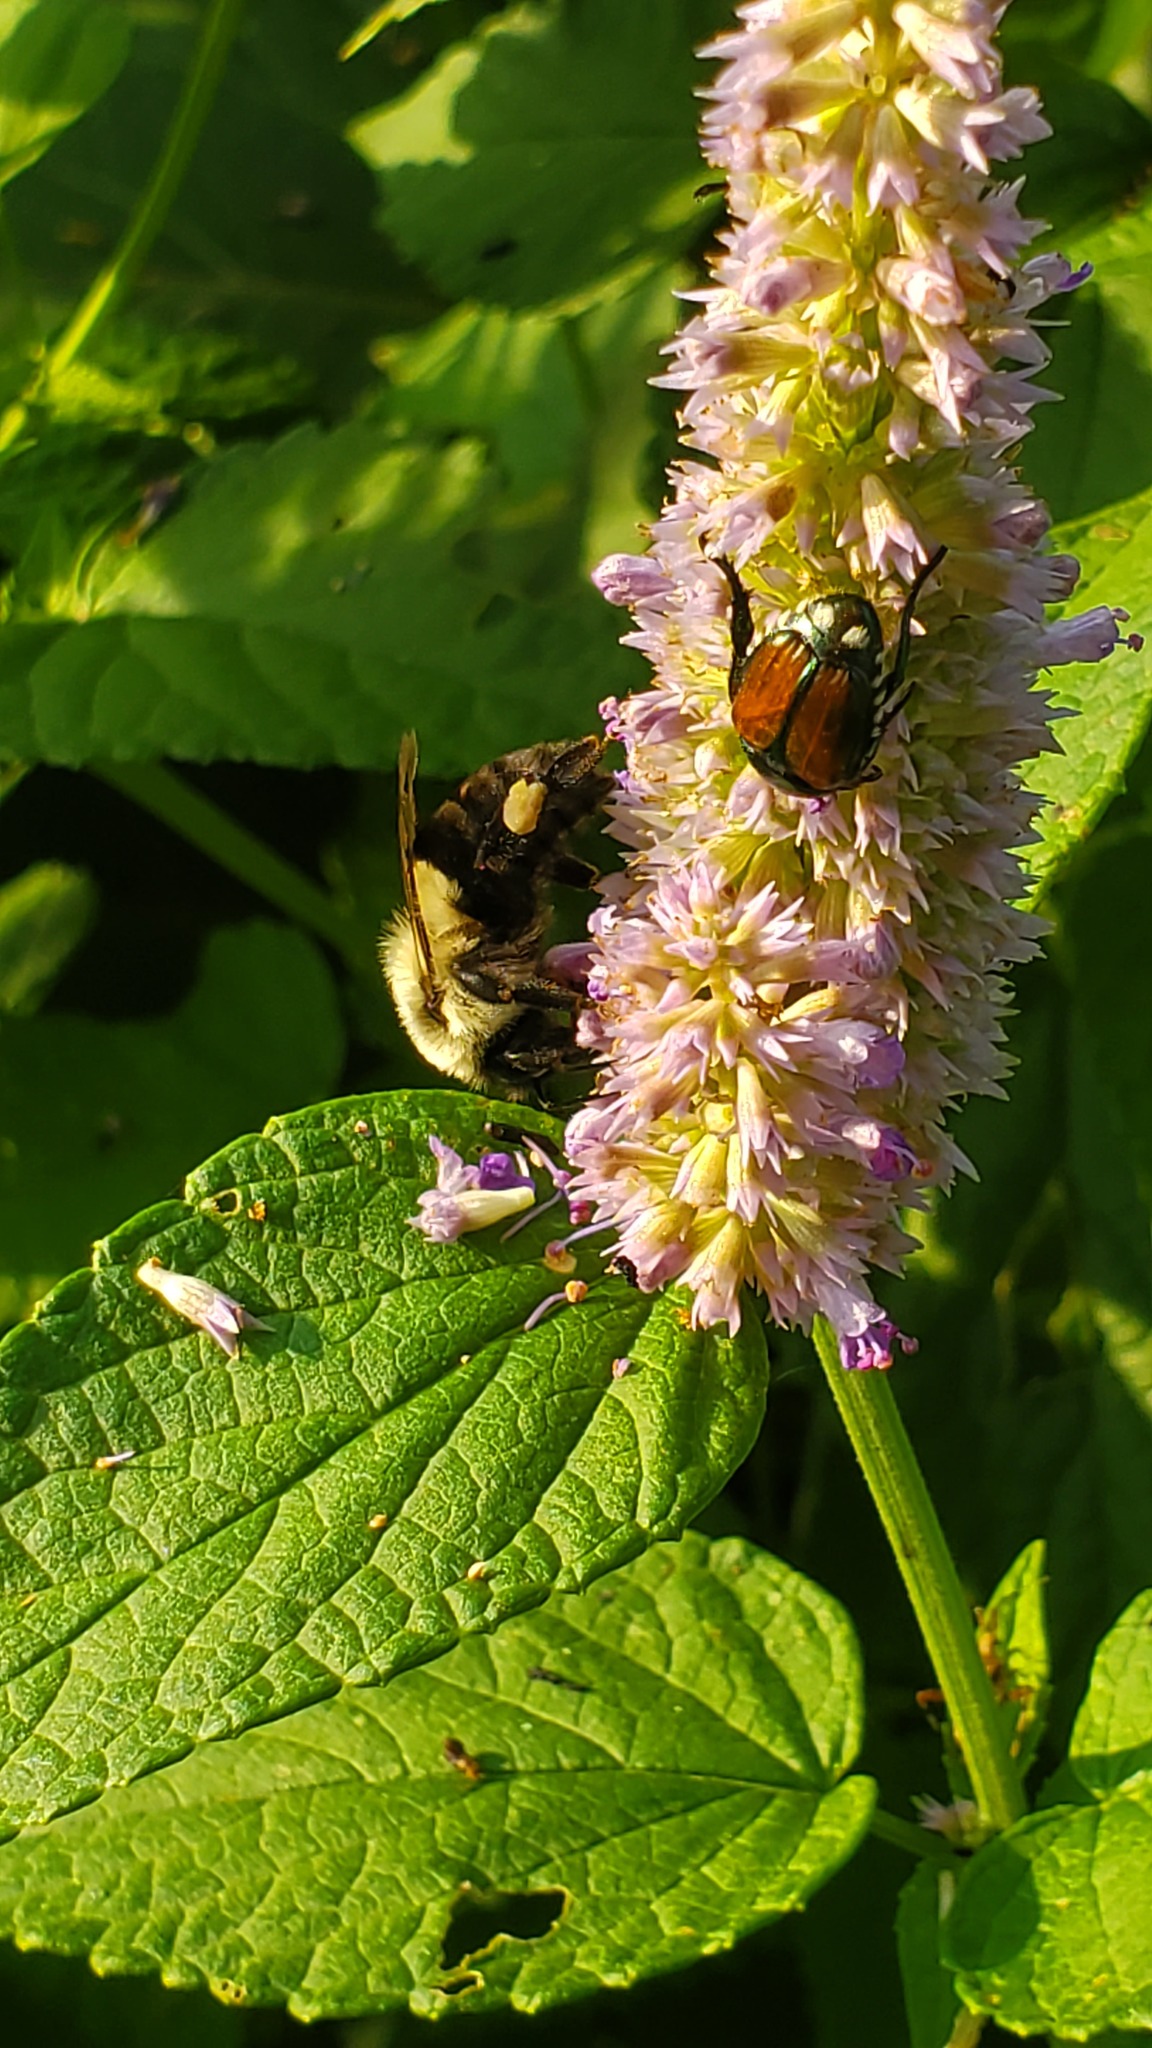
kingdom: Animalia
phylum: Arthropoda
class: Insecta
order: Coleoptera
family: Scarabaeidae
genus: Popillia
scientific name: Popillia japonica
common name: Japanese beetle
